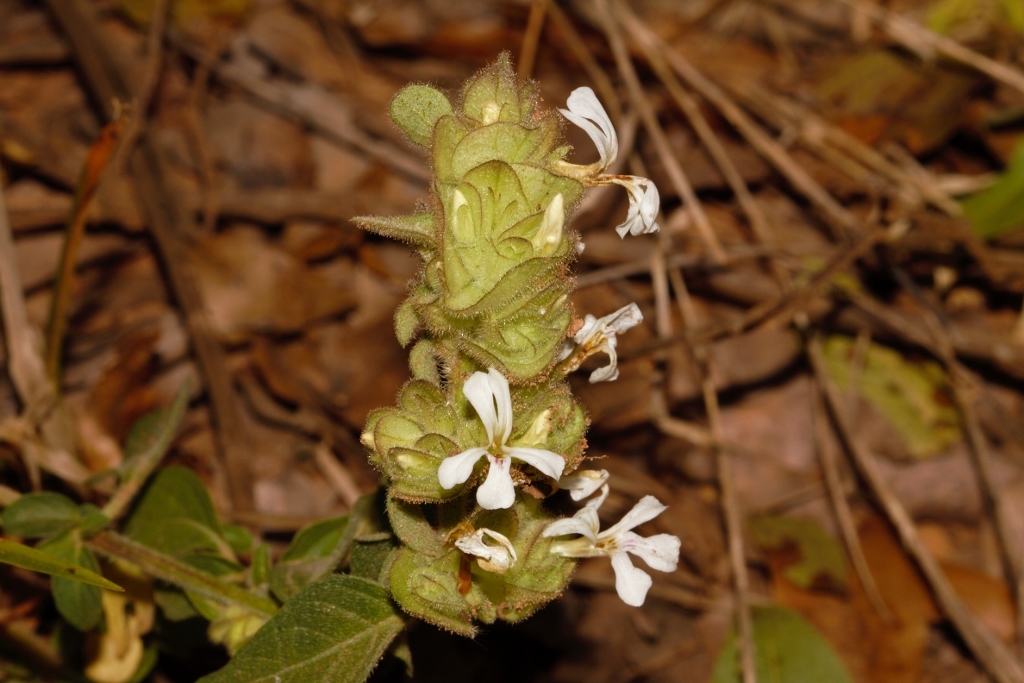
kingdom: Plantae
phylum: Tracheophyta
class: Magnoliopsida
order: Lamiales
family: Acanthaceae
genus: Phaulopsis
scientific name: Phaulopsis imbricata
